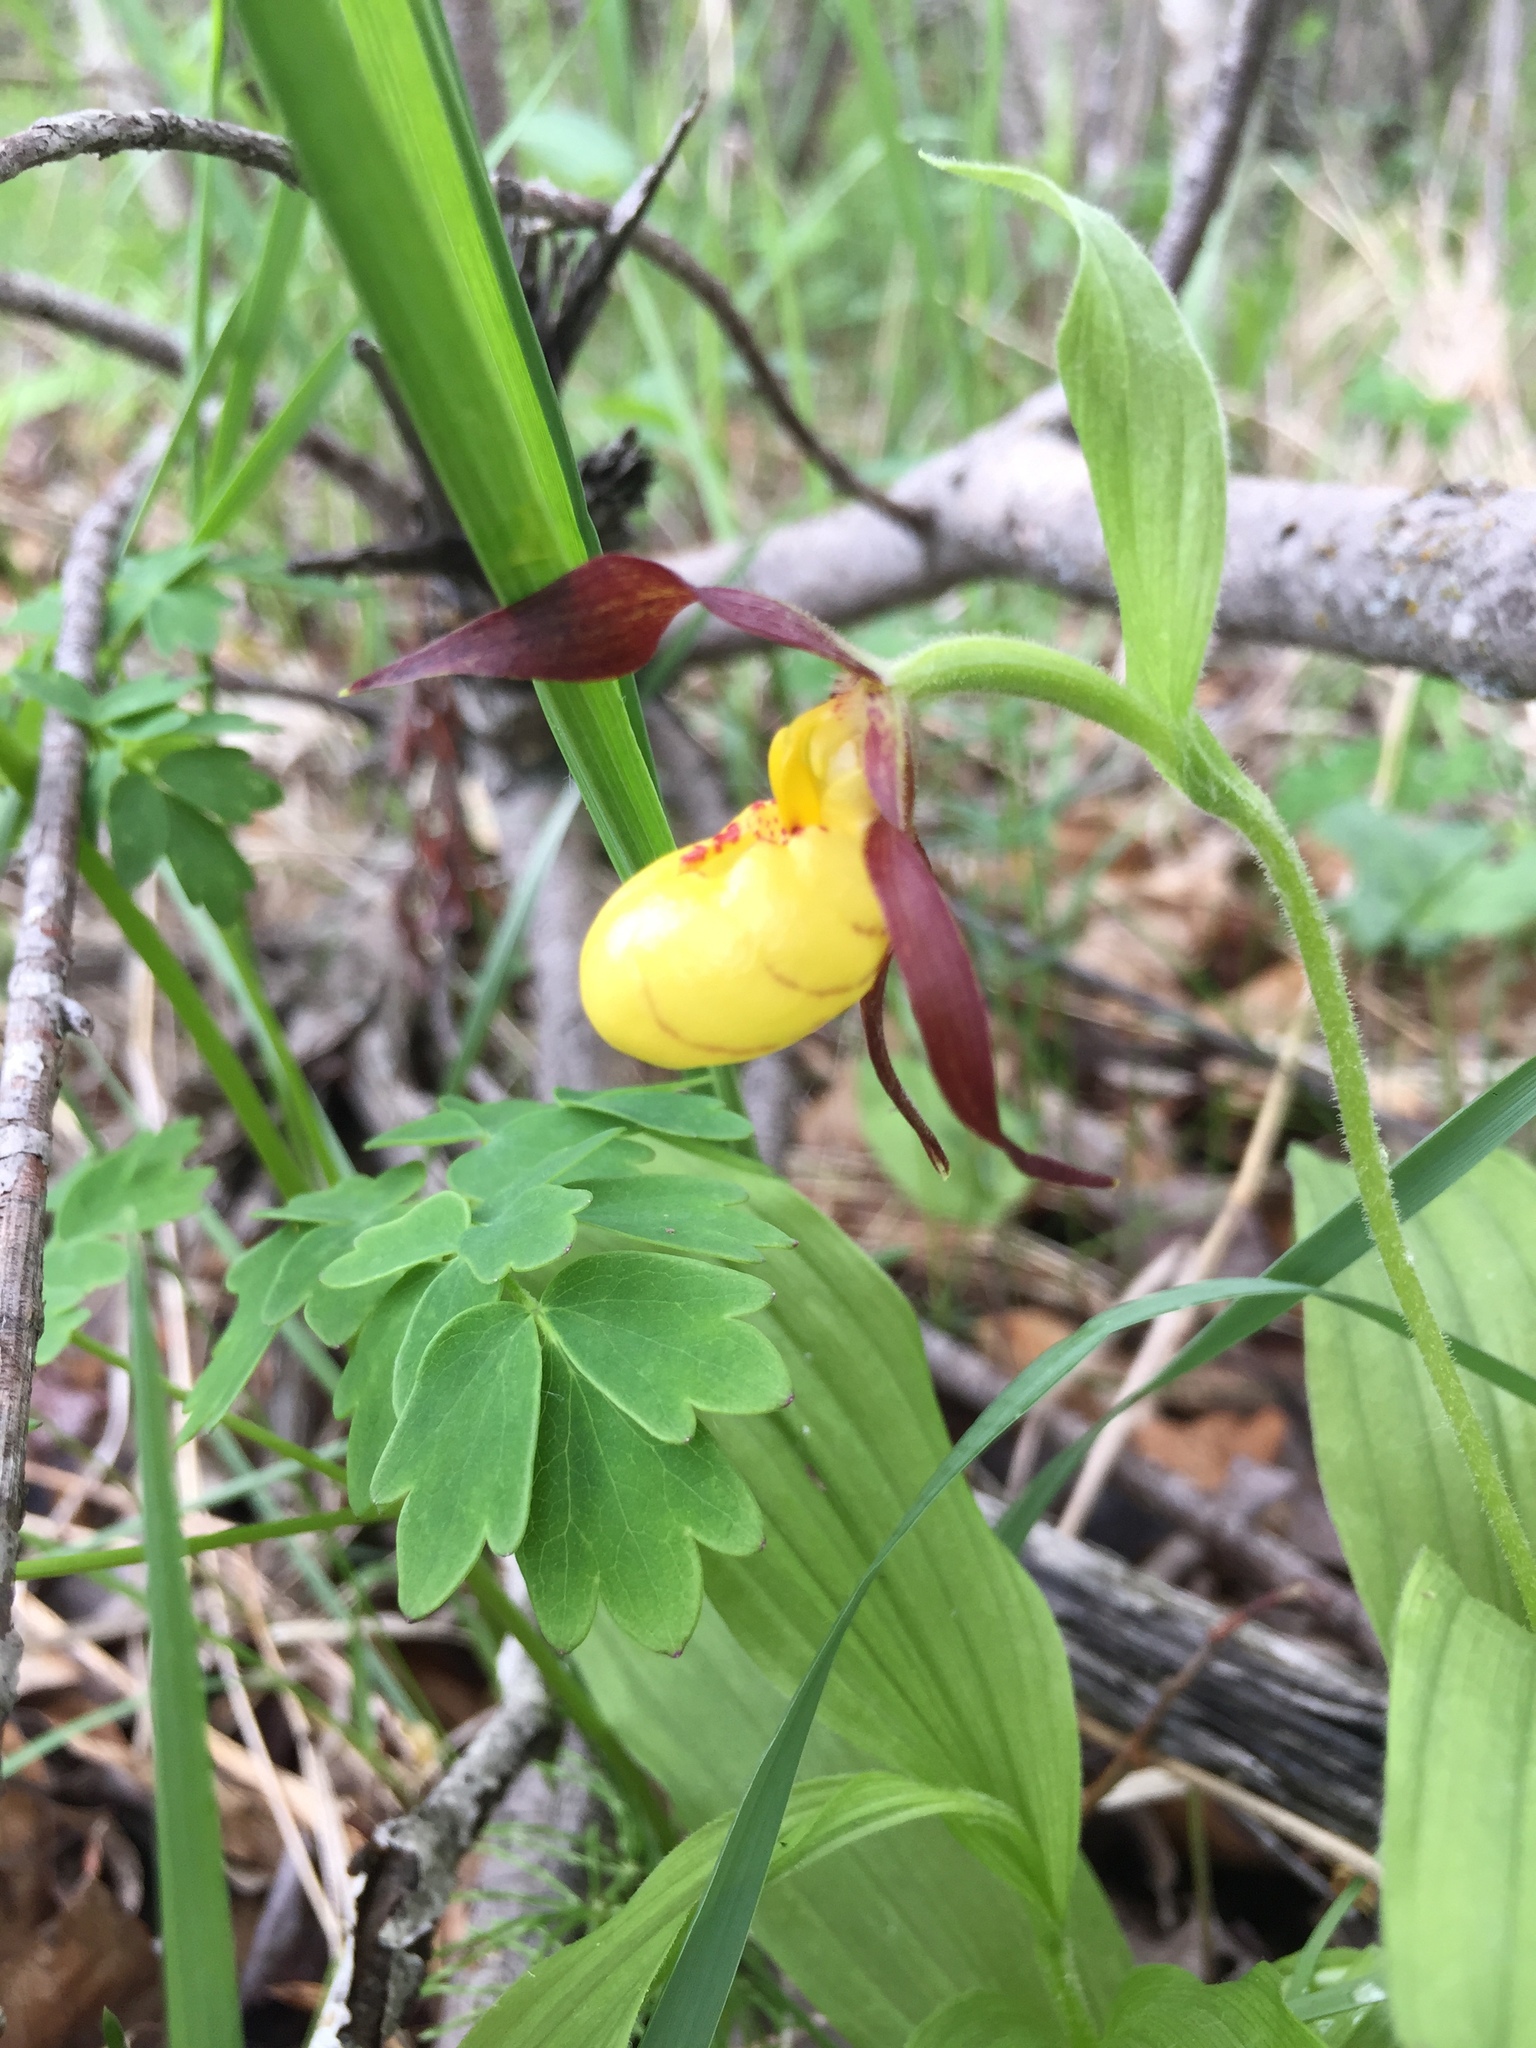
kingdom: Plantae
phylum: Tracheophyta
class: Liliopsida
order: Asparagales
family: Orchidaceae
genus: Cypripedium
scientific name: Cypripedium parviflorum
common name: American yellow lady's-slipper
